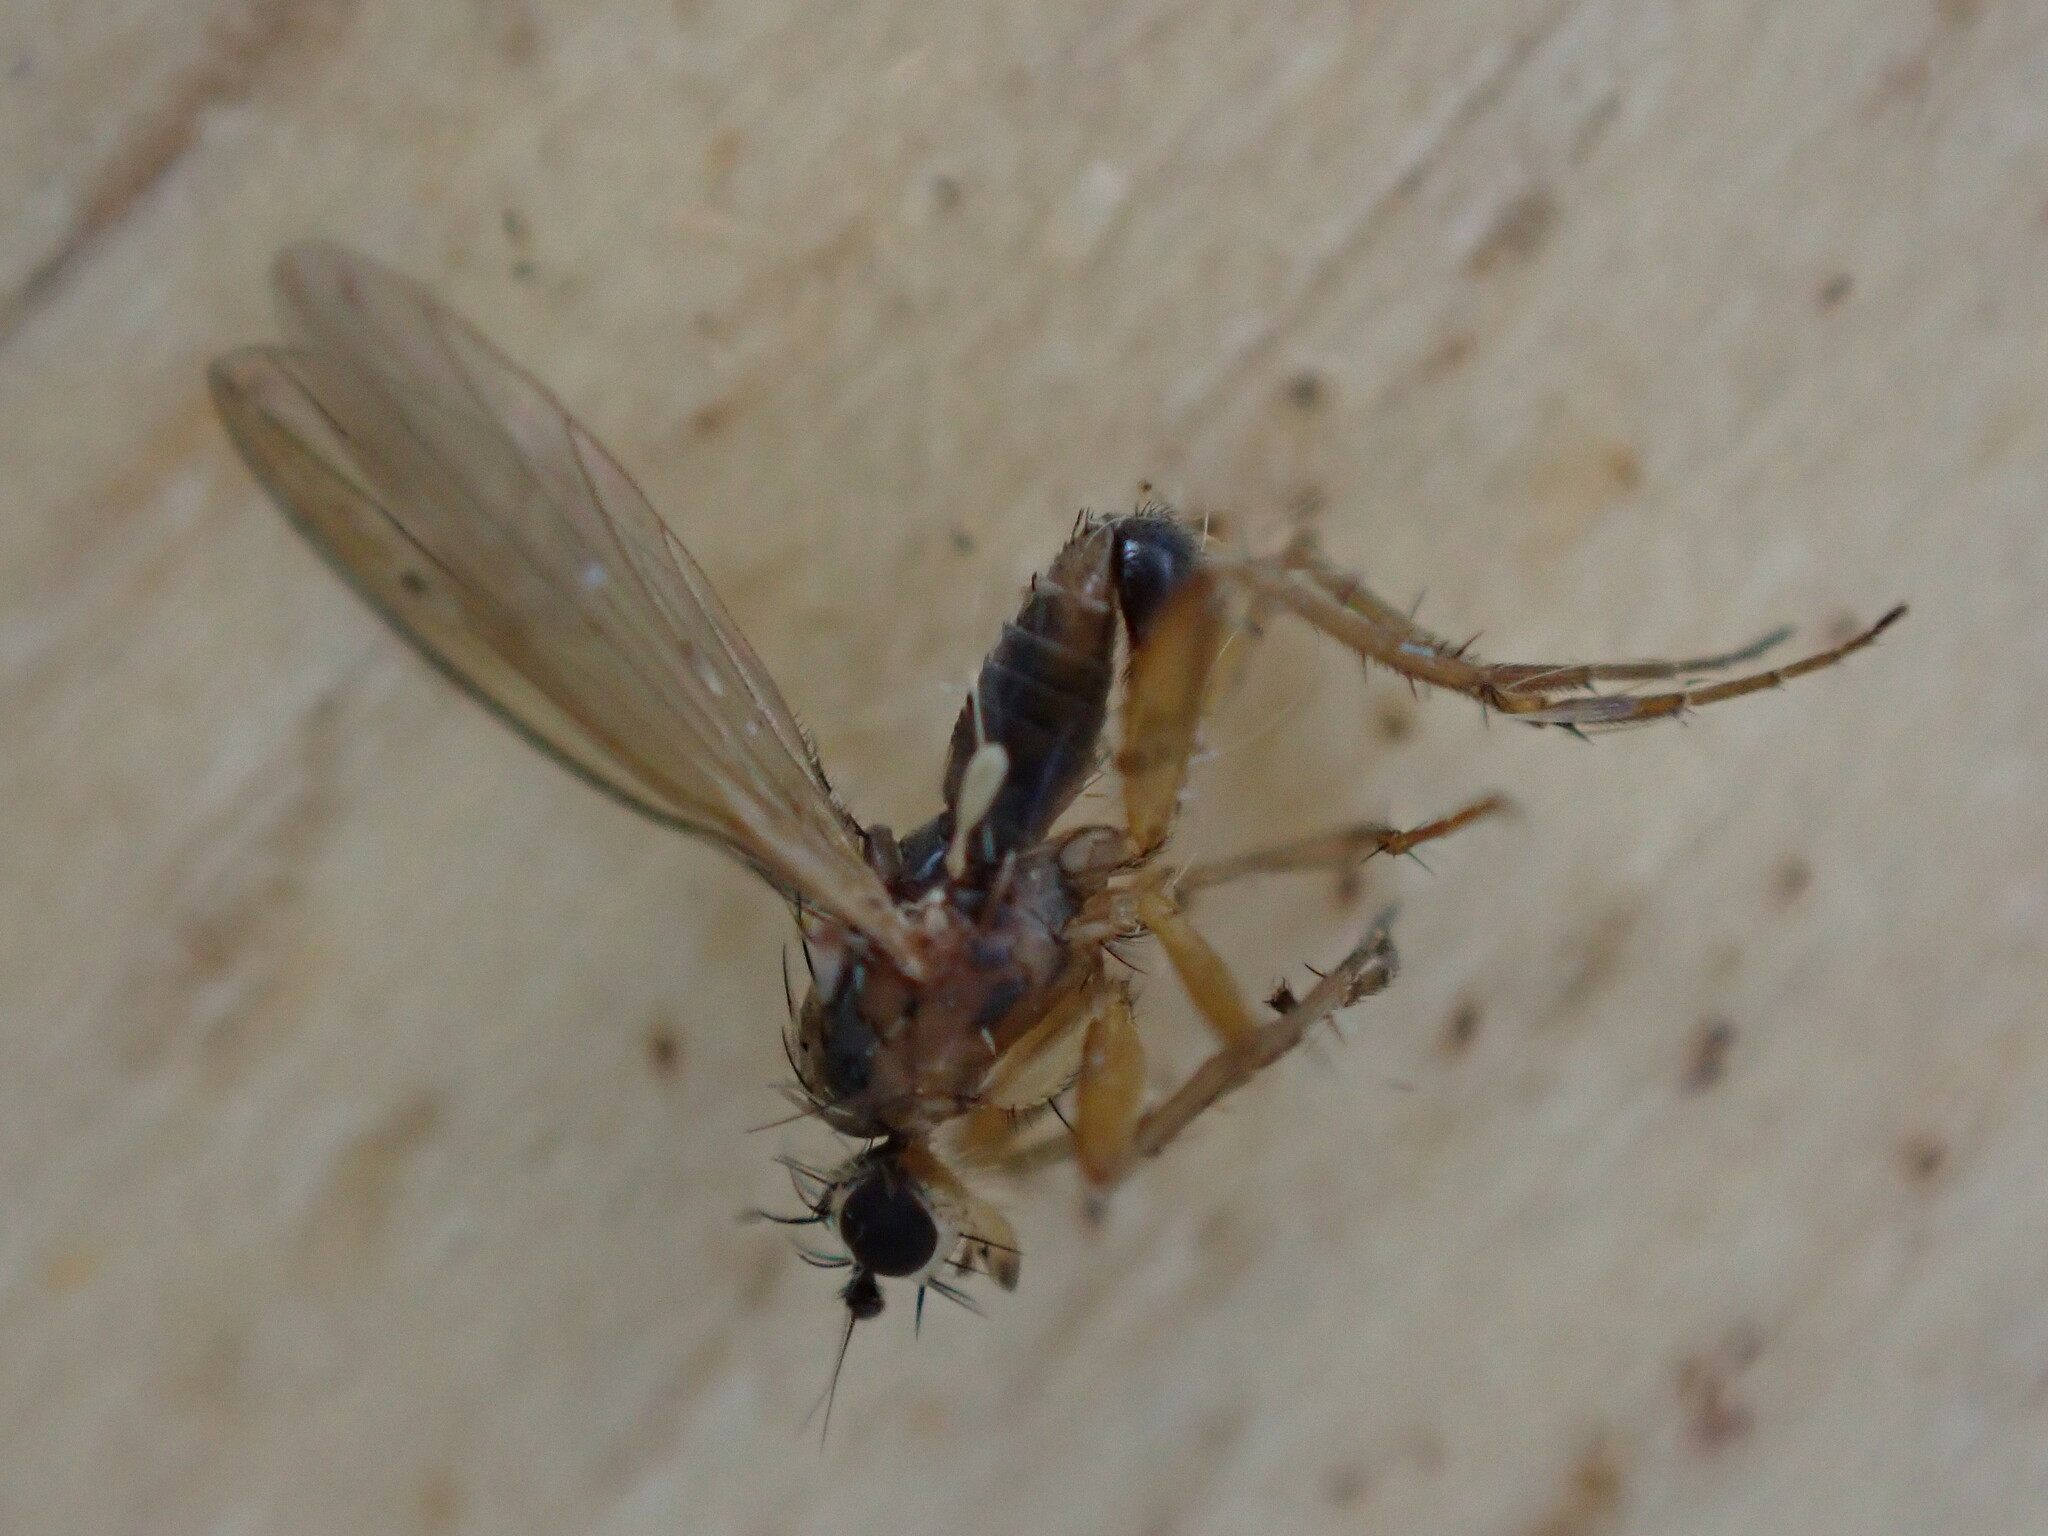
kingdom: Animalia
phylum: Arthropoda
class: Insecta
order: Diptera
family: Lonchopteridae
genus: Lonchoptera
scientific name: Lonchoptera
